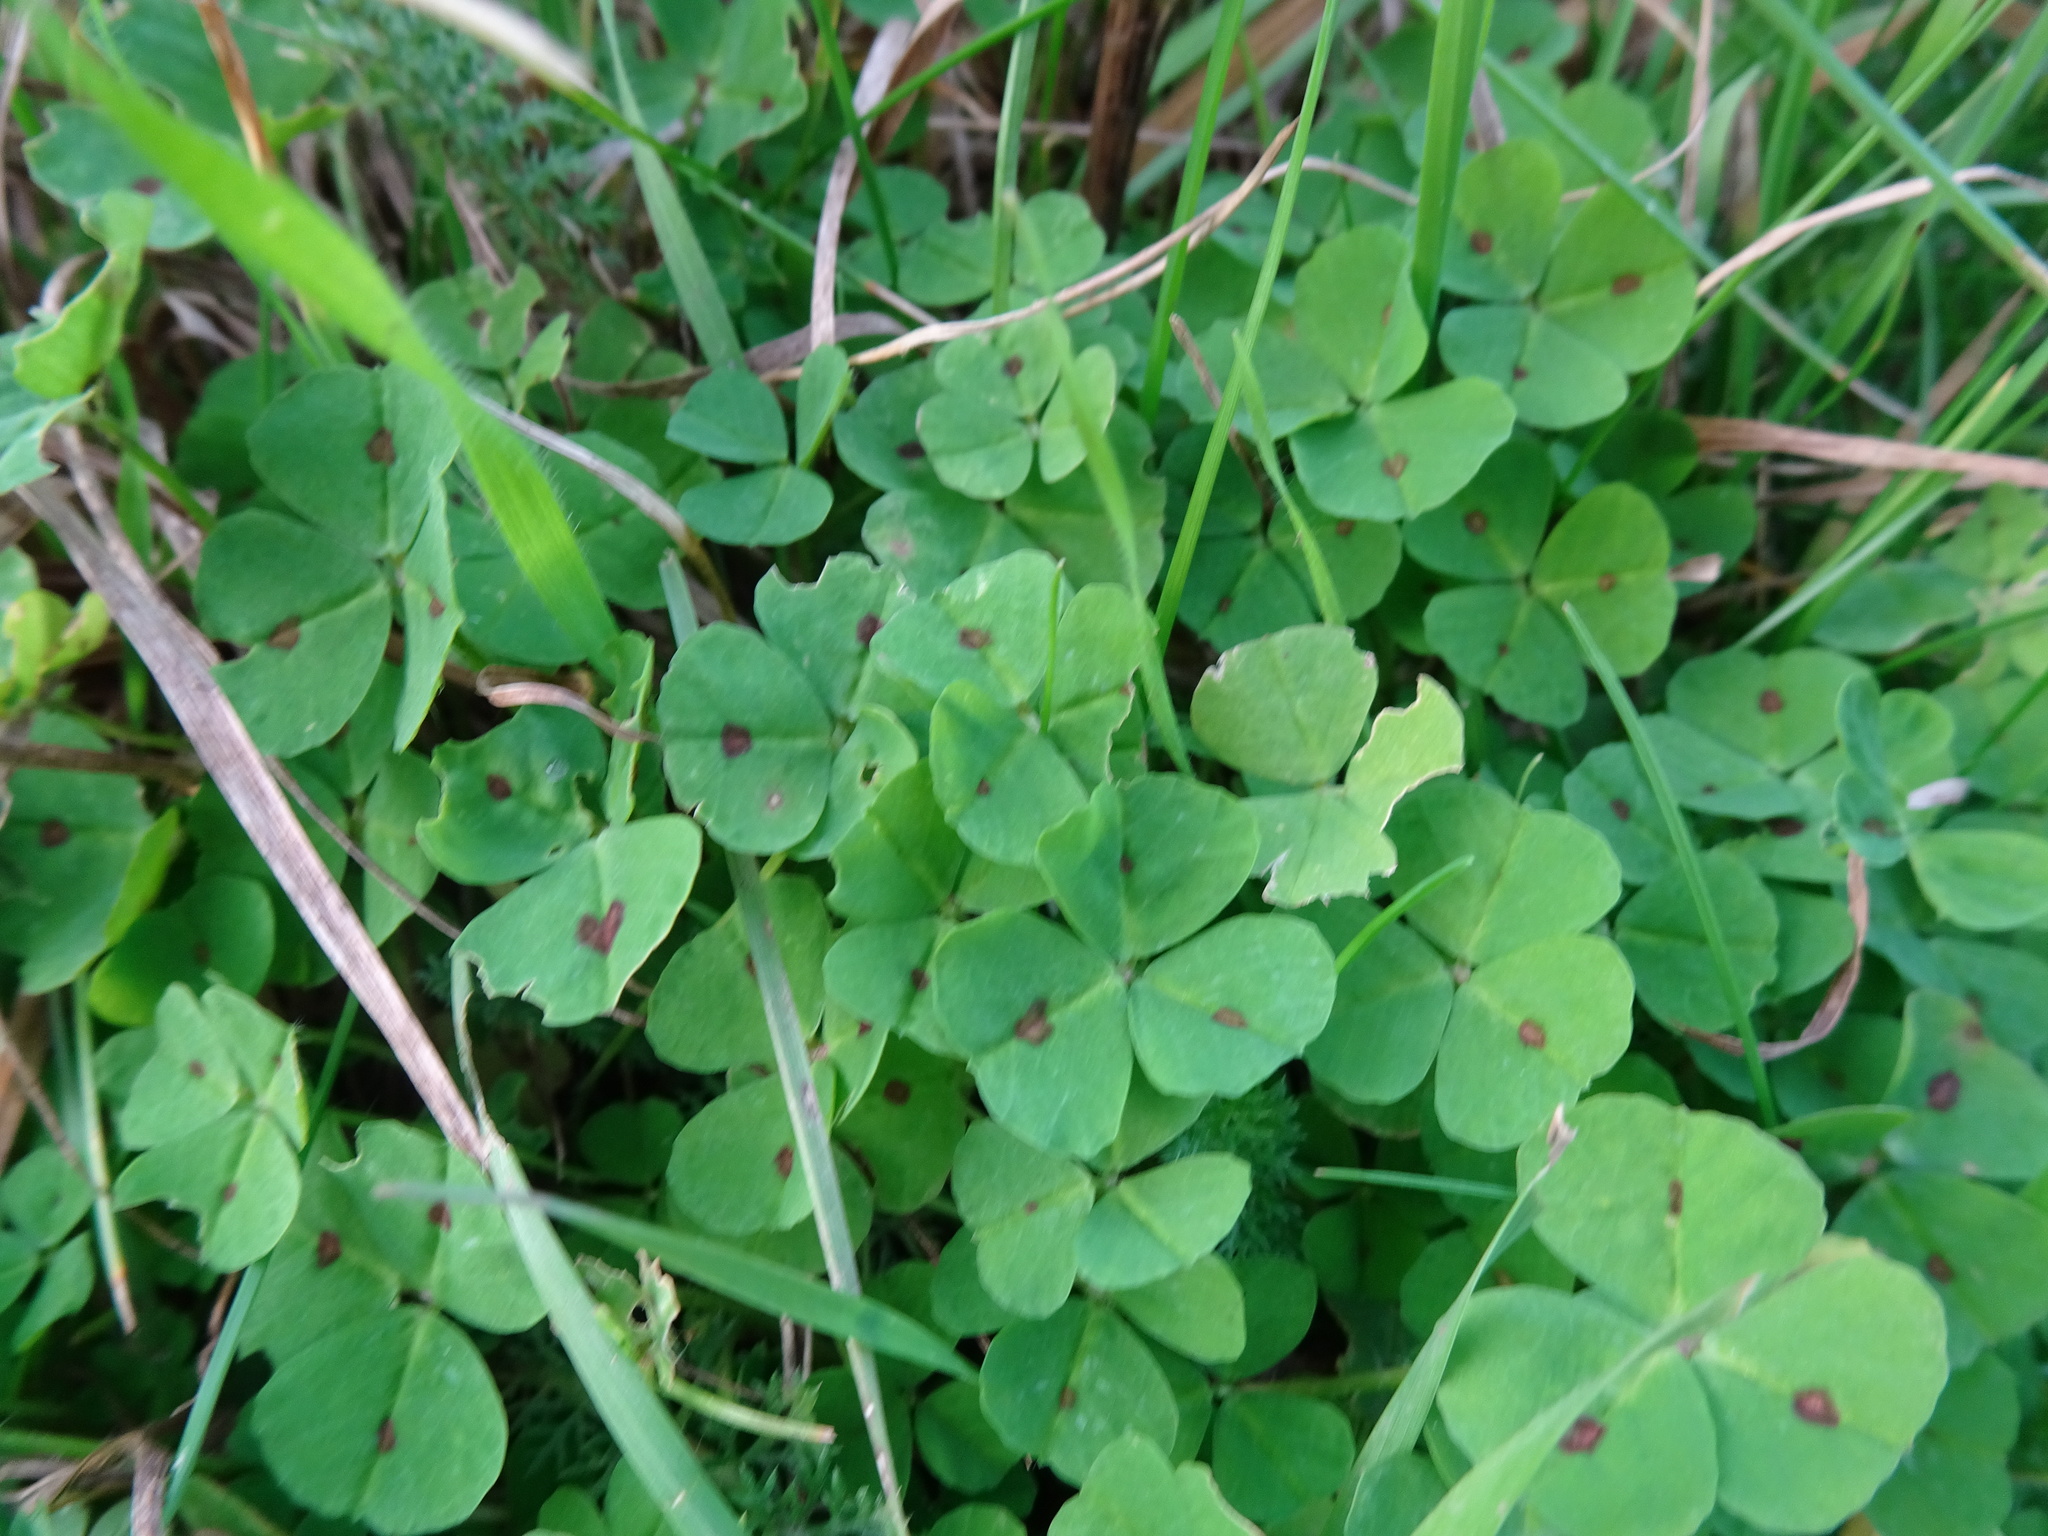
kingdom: Plantae
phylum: Tracheophyta
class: Magnoliopsida
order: Fabales
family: Fabaceae
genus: Medicago
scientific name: Medicago arabica
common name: Spotted medick
